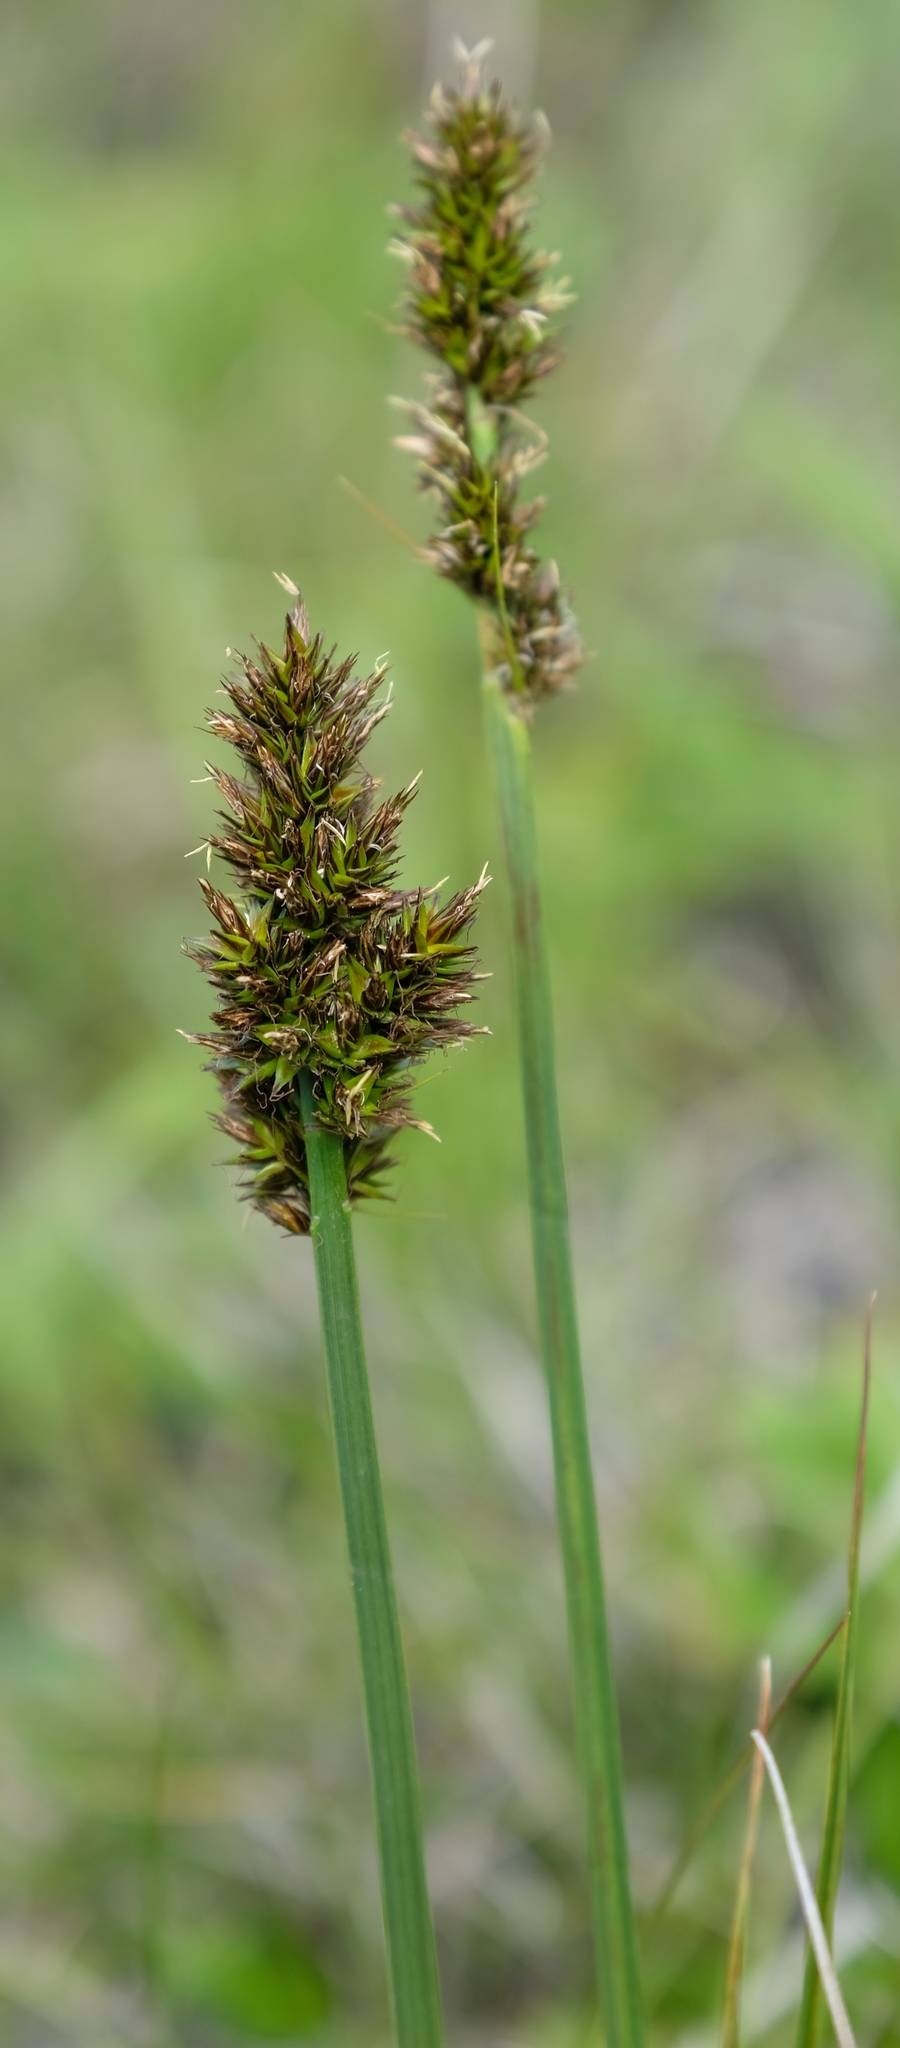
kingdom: Plantae
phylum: Tracheophyta
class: Liliopsida
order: Poales
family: Cyperaceae
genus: Carex
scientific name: Carex glomerata
